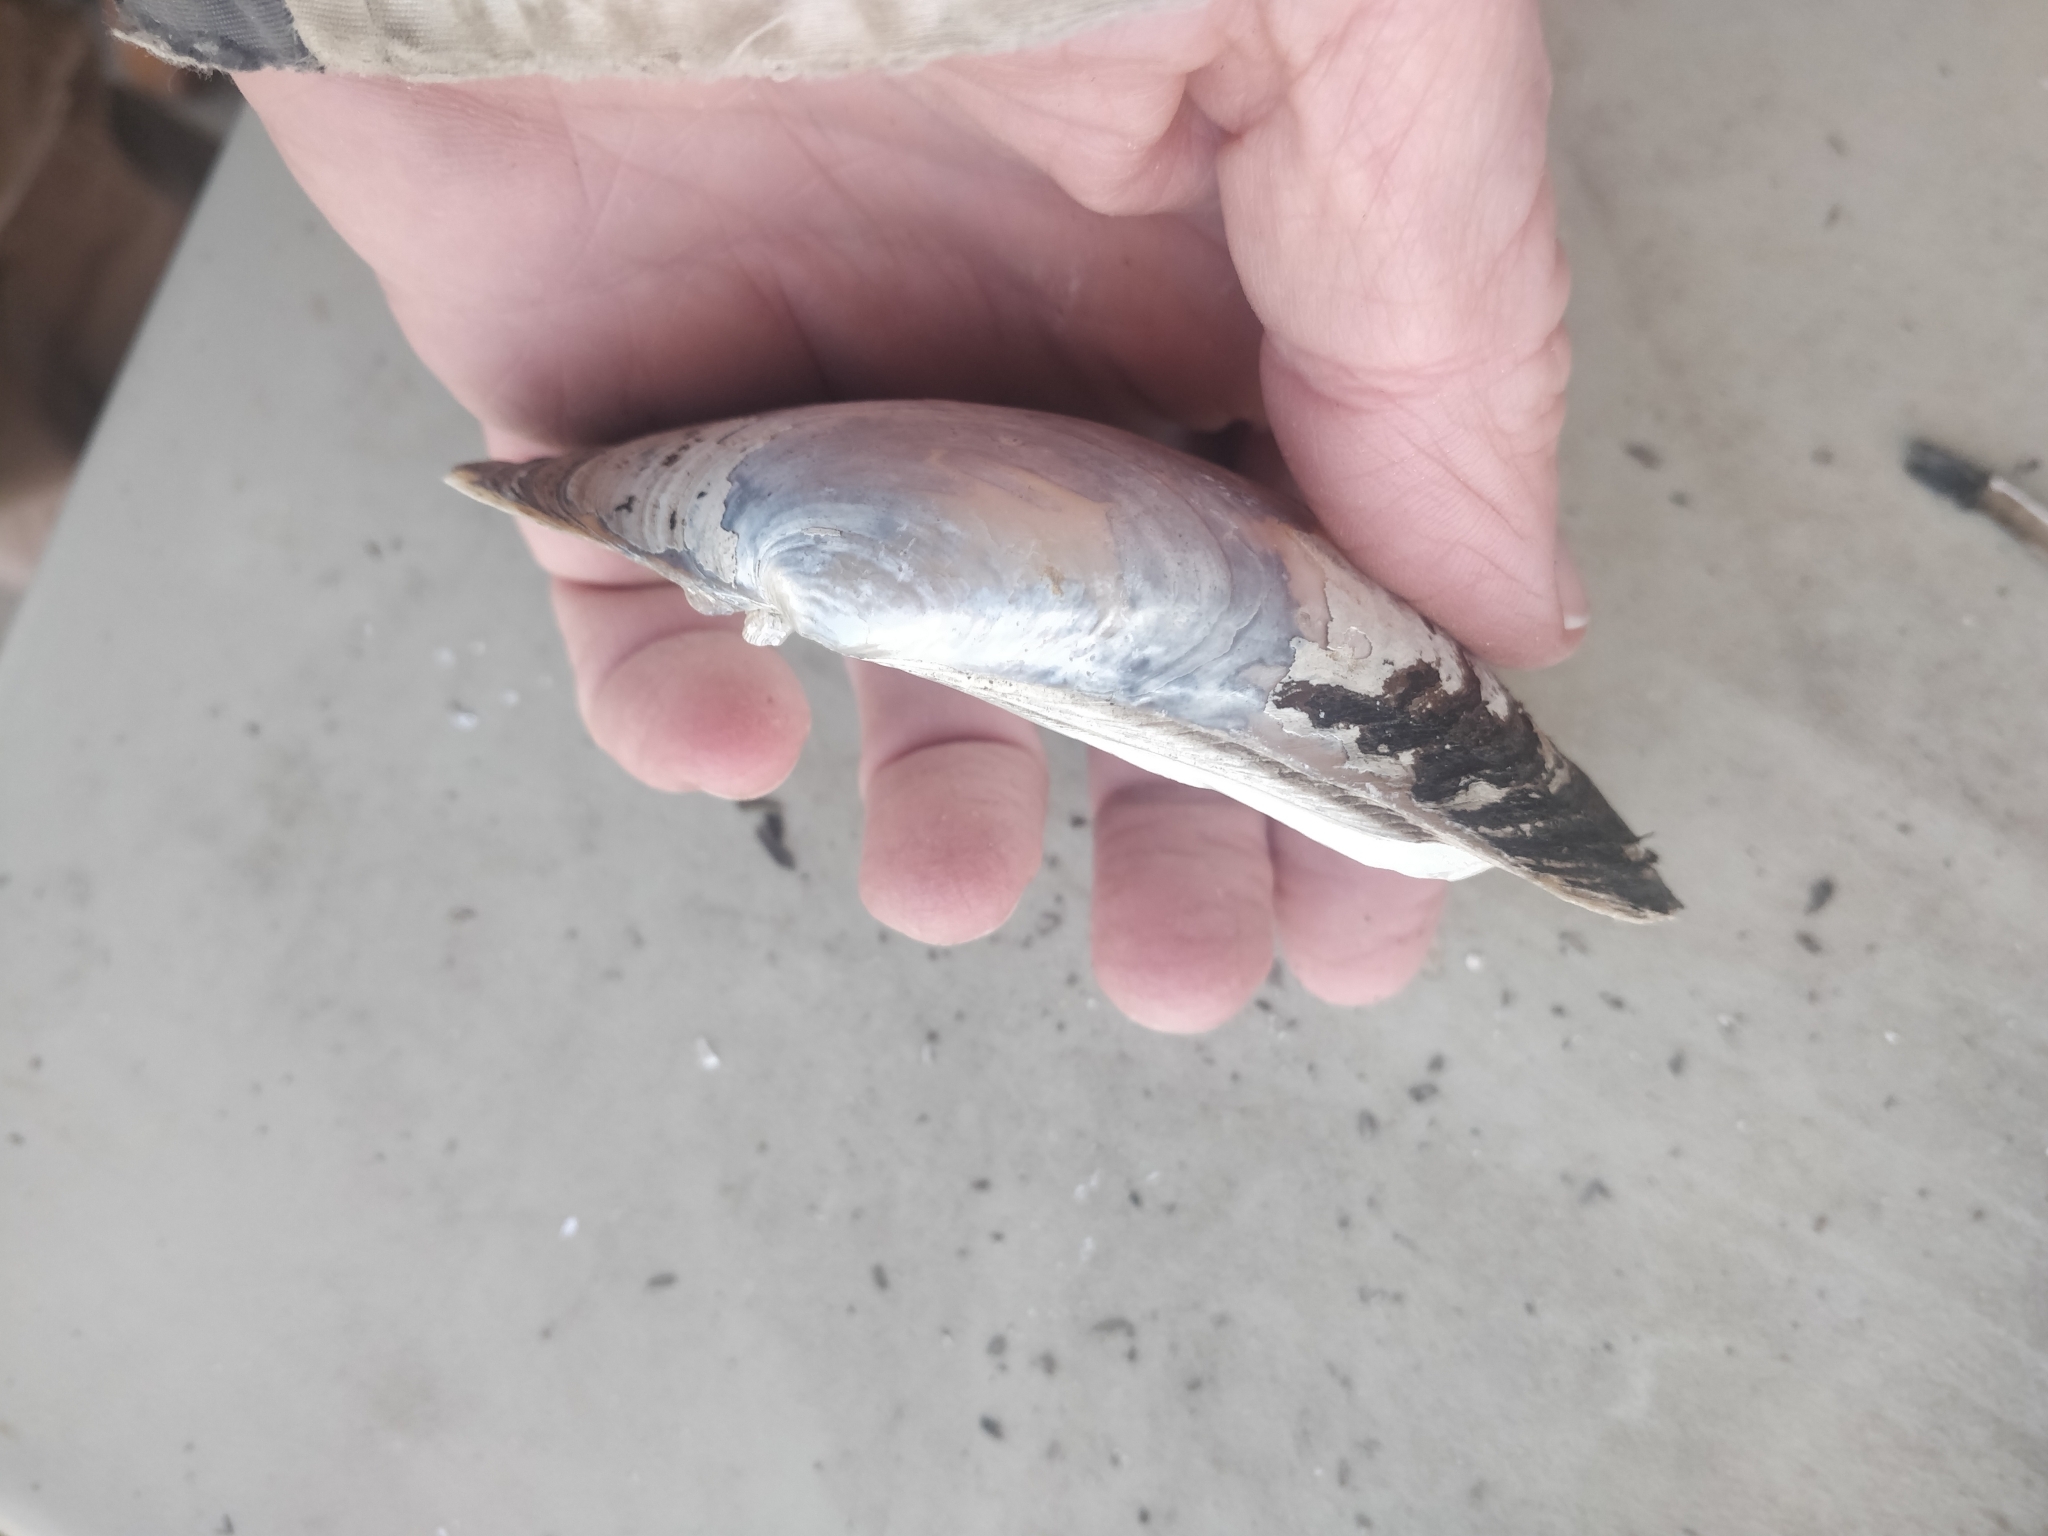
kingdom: Animalia
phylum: Mollusca
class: Bivalvia
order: Unionida
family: Unionidae
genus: Lampsilis
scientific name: Lampsilis siliquoidea
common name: Fatmucket
